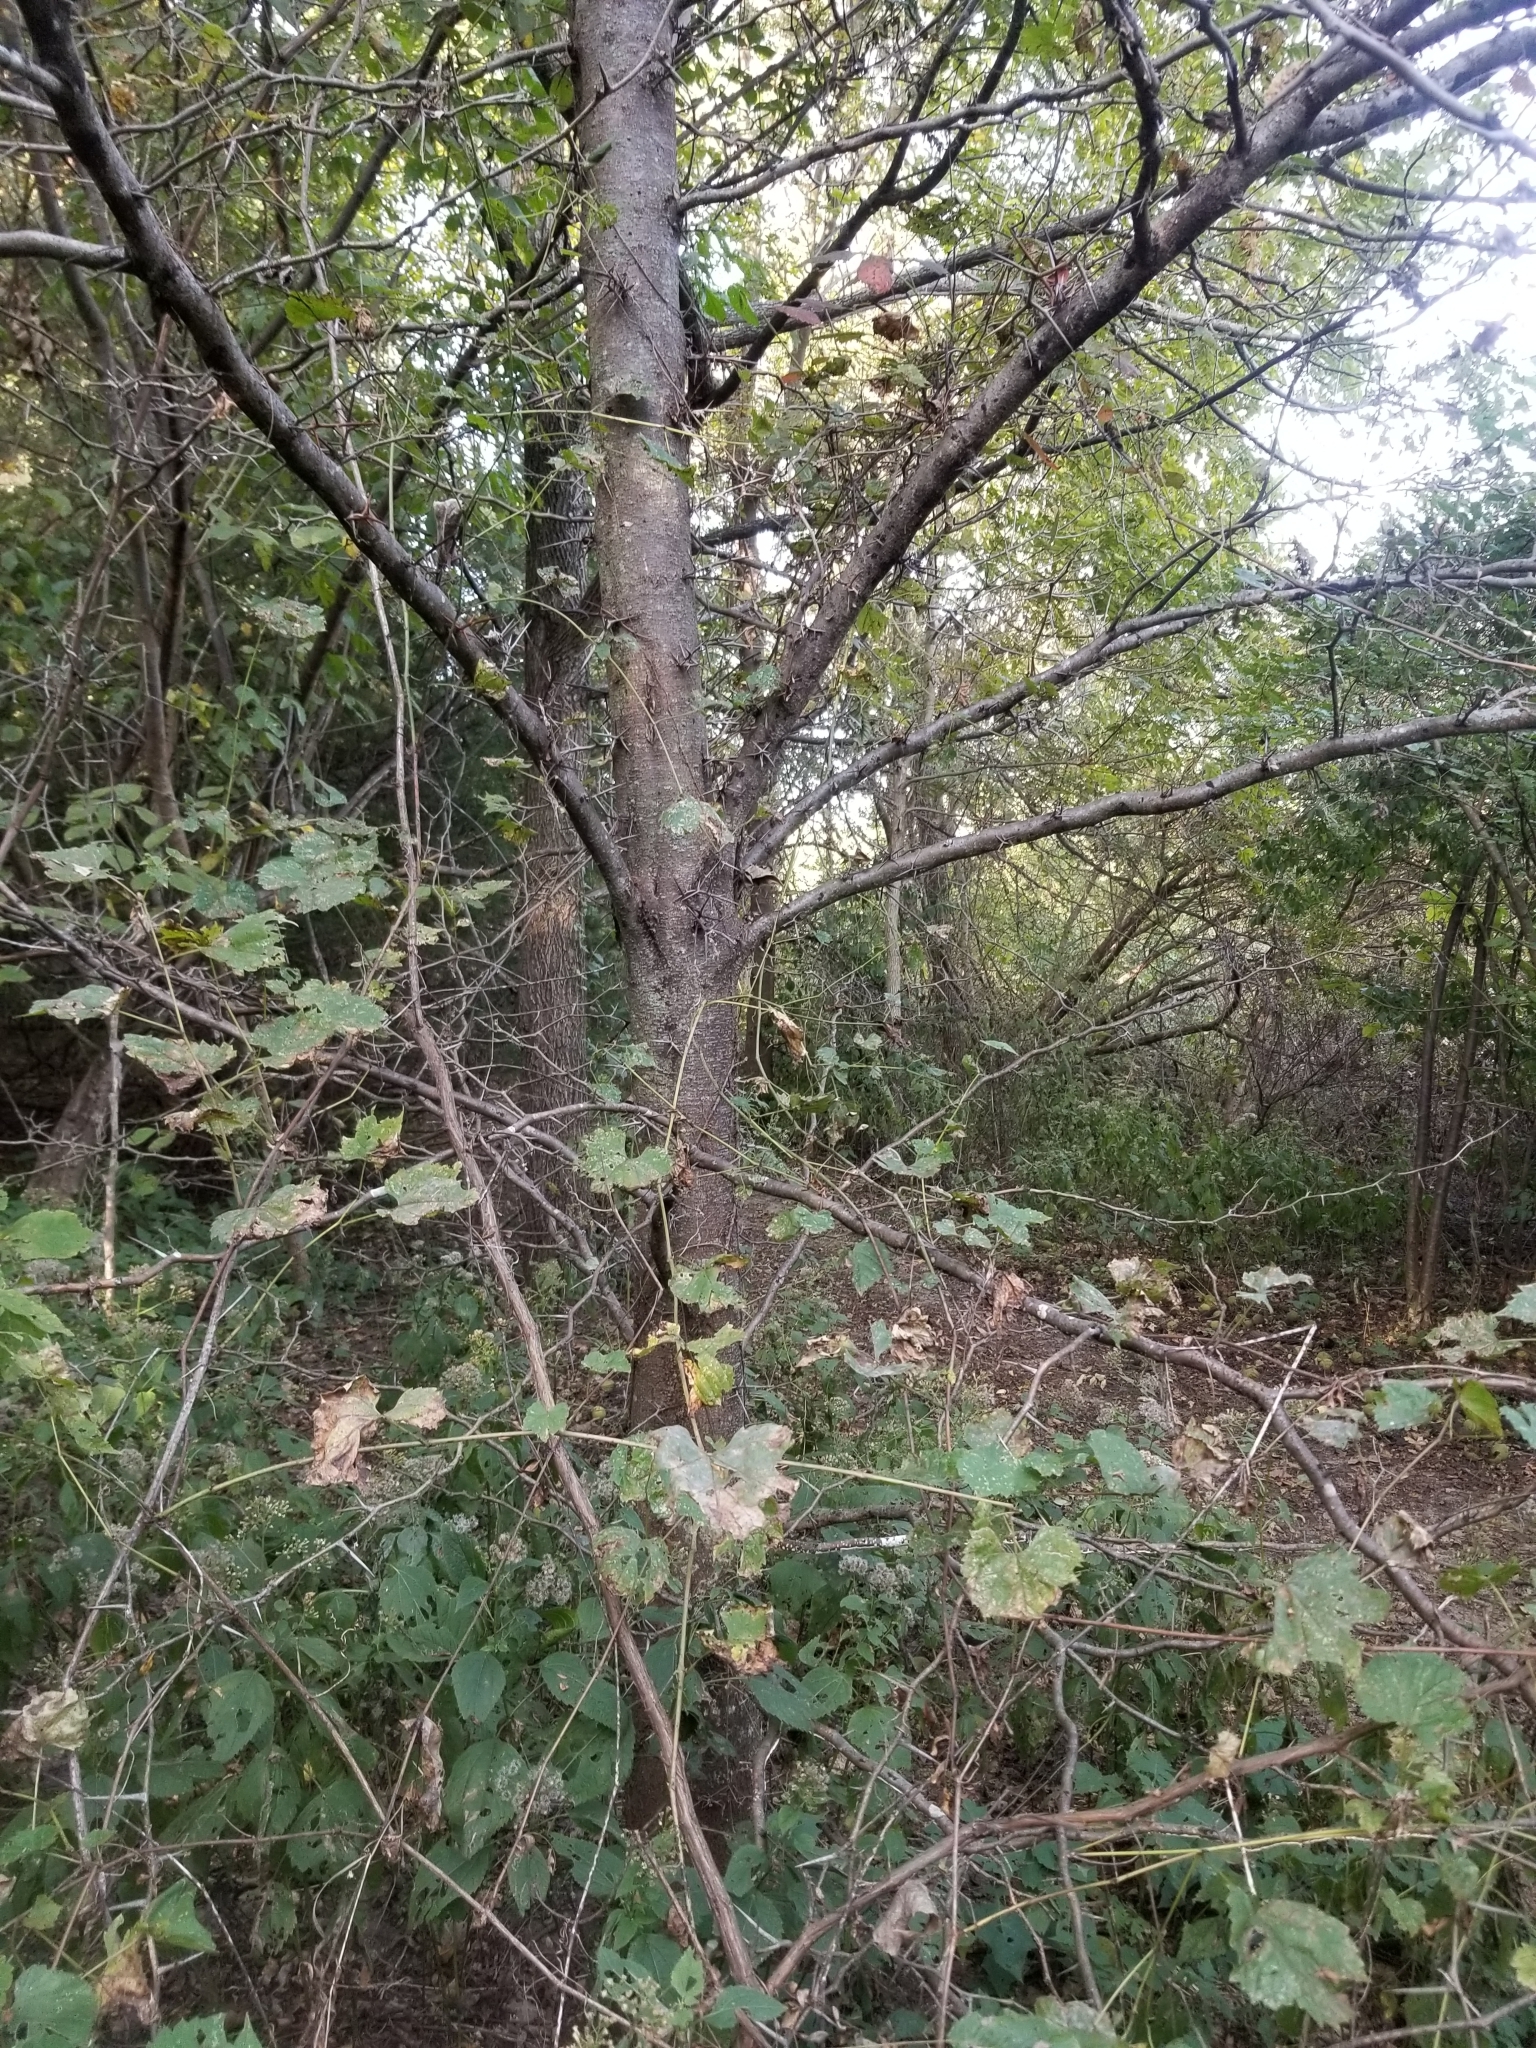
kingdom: Plantae
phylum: Tracheophyta
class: Magnoliopsida
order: Fabales
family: Fabaceae
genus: Gleditsia
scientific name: Gleditsia triacanthos
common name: Common honeylocust
